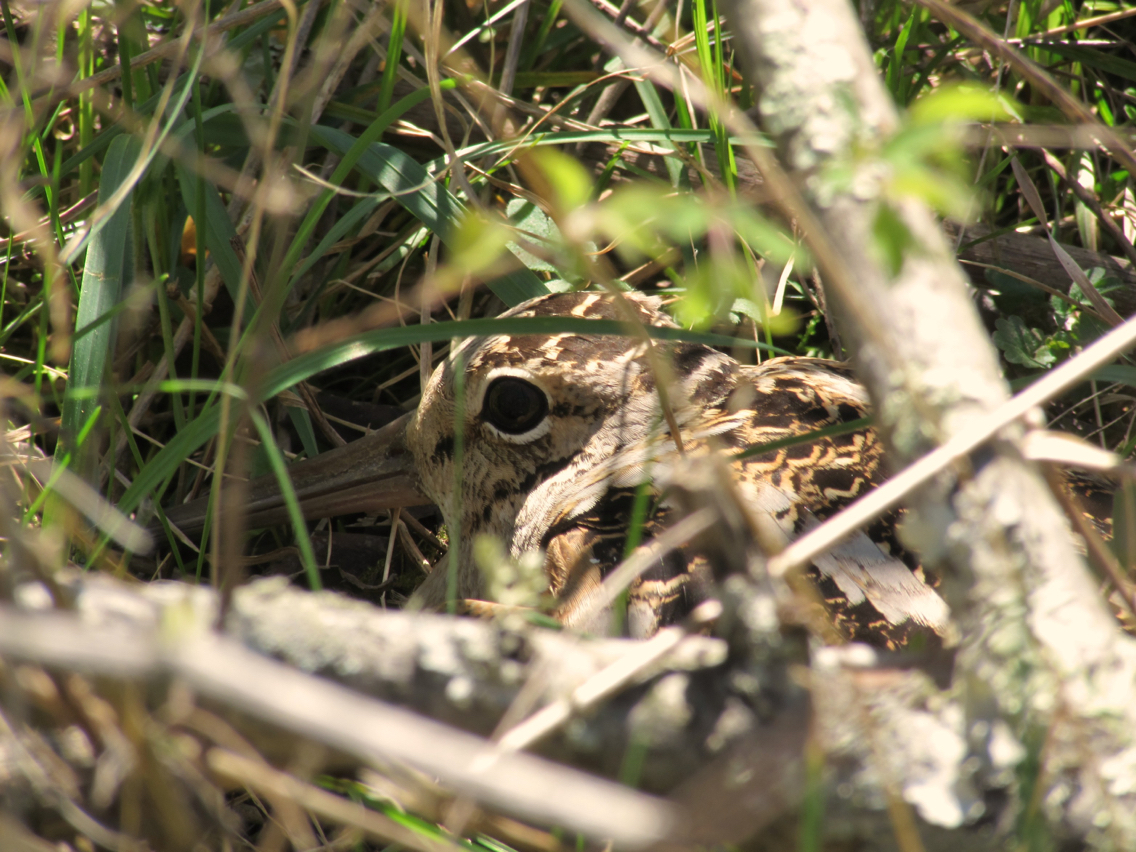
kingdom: Animalia
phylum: Chordata
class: Aves
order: Charadriiformes
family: Scolopacidae
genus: Scolopax
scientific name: Scolopax minor
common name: American woodcock
